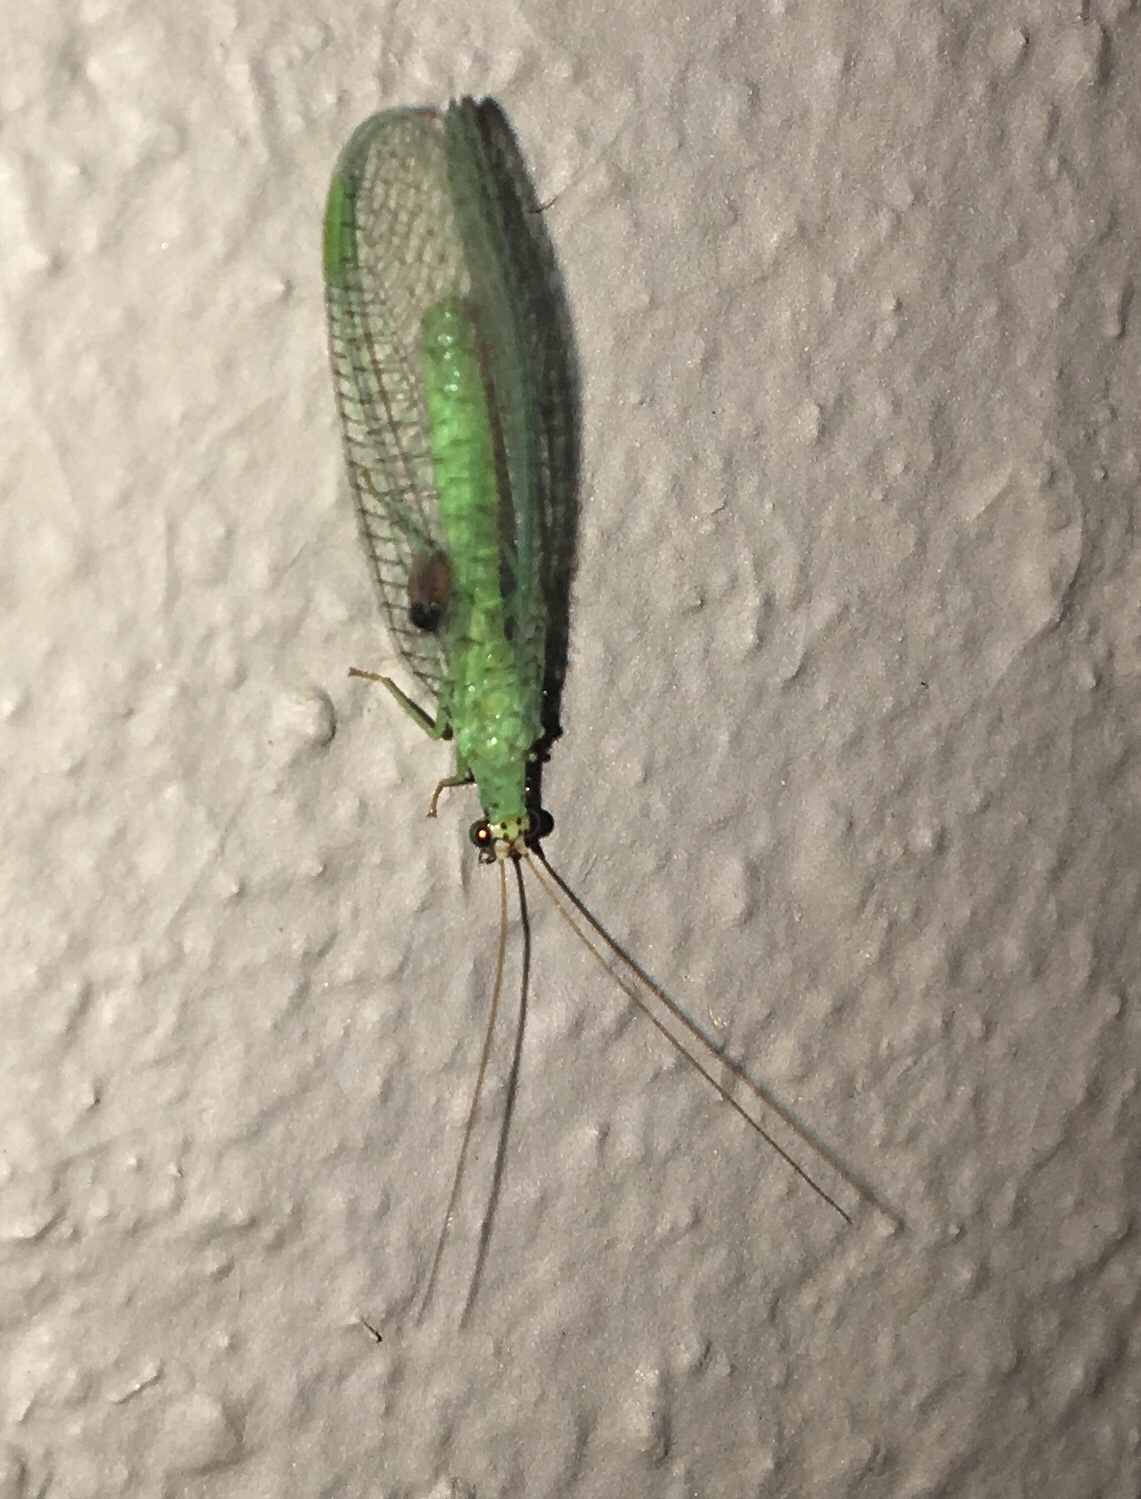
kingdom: Animalia
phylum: Arthropoda
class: Insecta
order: Neuroptera
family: Chrysopidae
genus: Chrysopa
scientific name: Chrysopa oculata
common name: Golden-eyed lacewing
